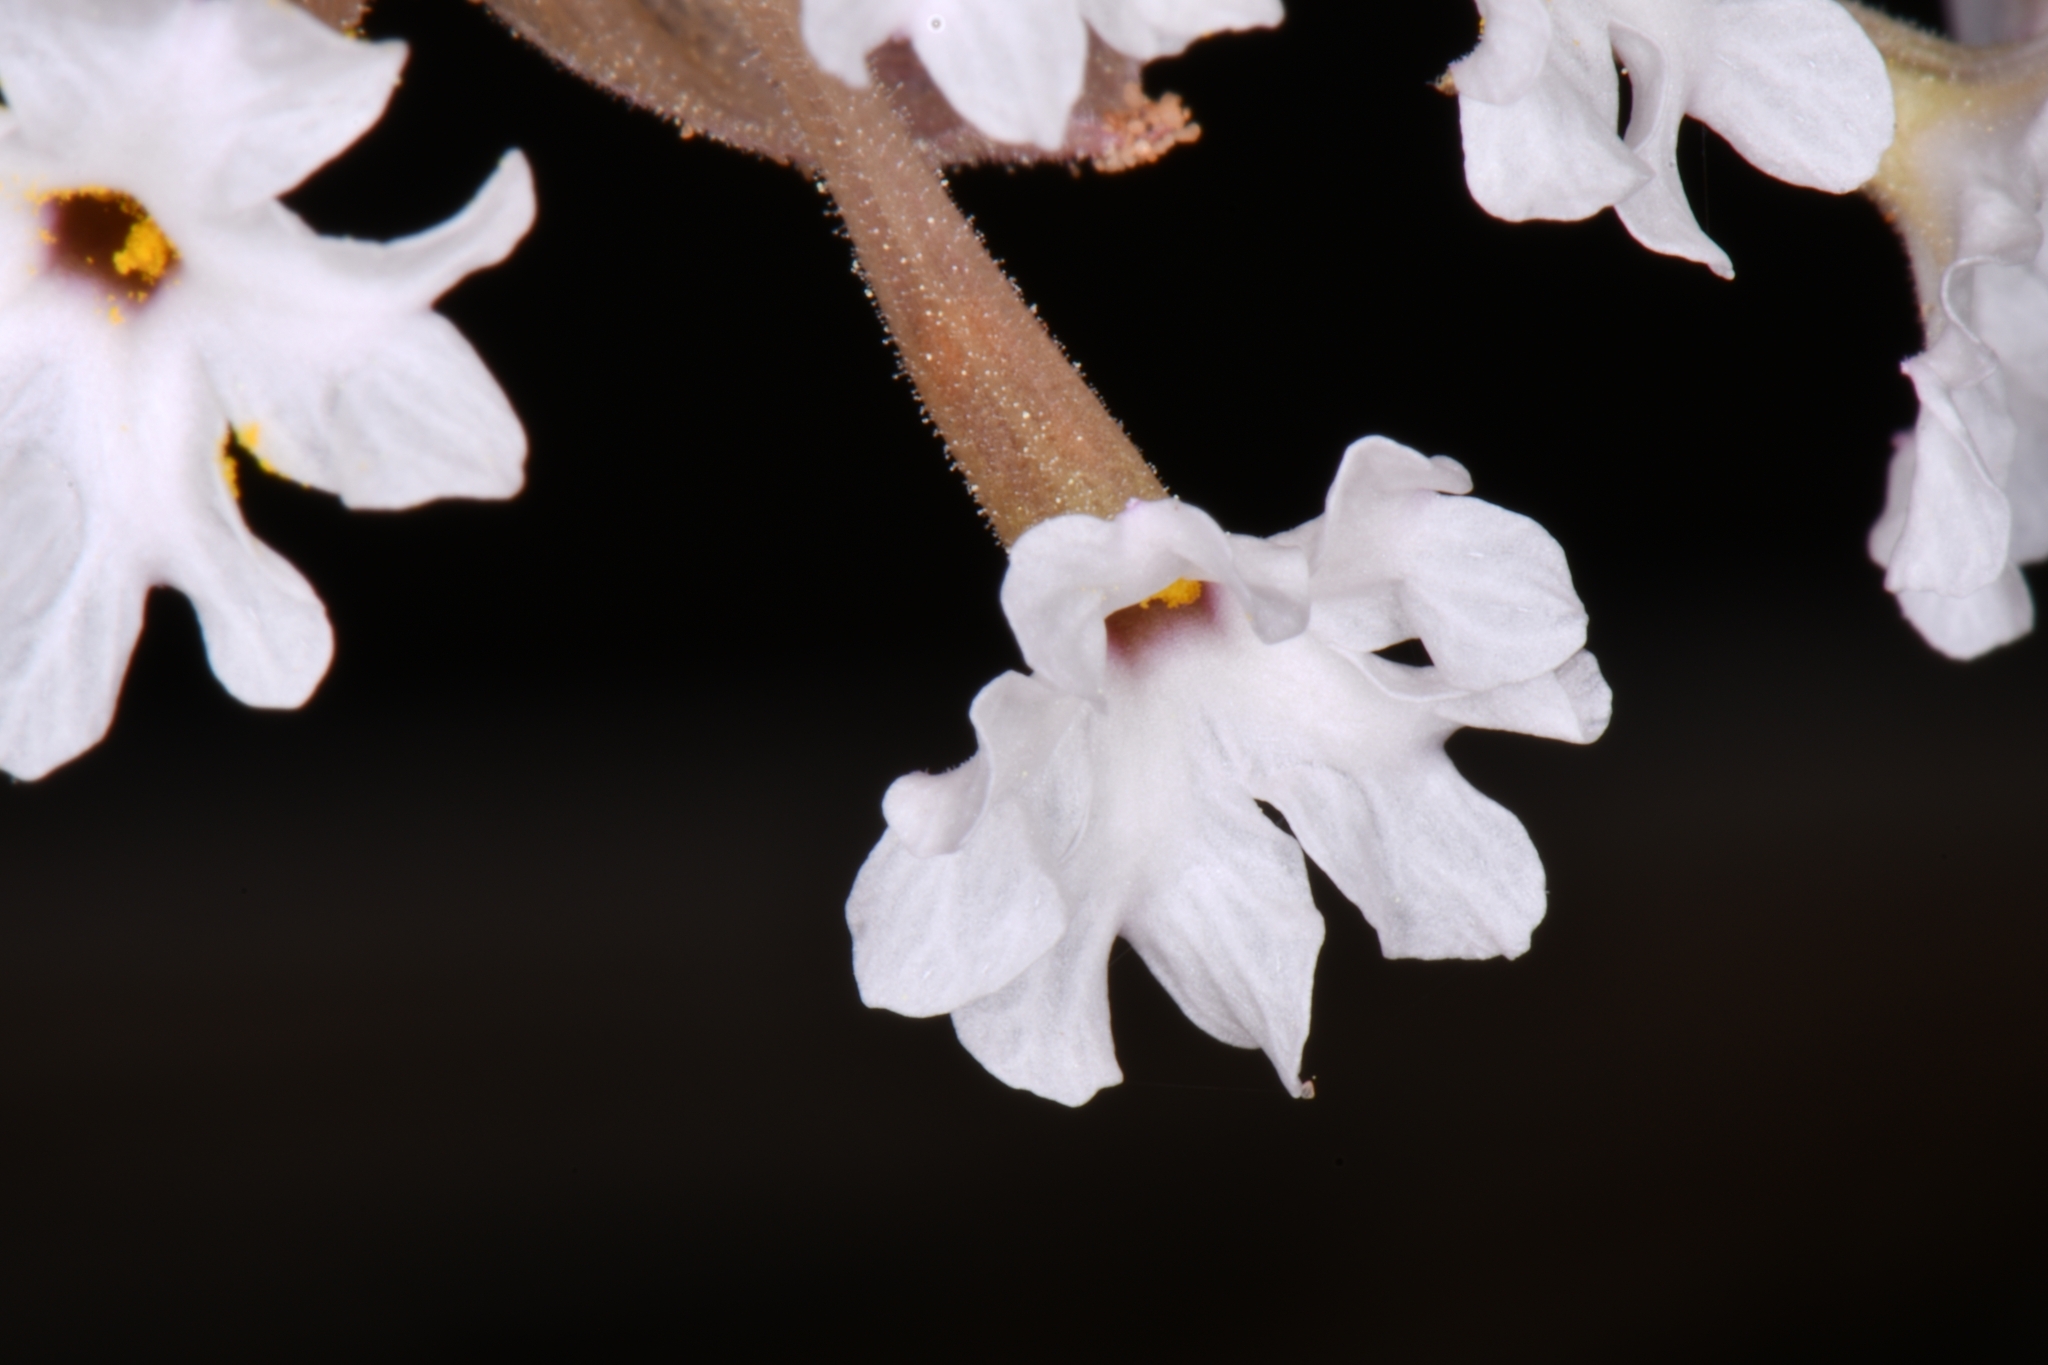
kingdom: Plantae
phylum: Tracheophyta
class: Magnoliopsida
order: Caryophyllales
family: Nyctaginaceae
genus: Abronia
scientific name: Abronia elliptica
